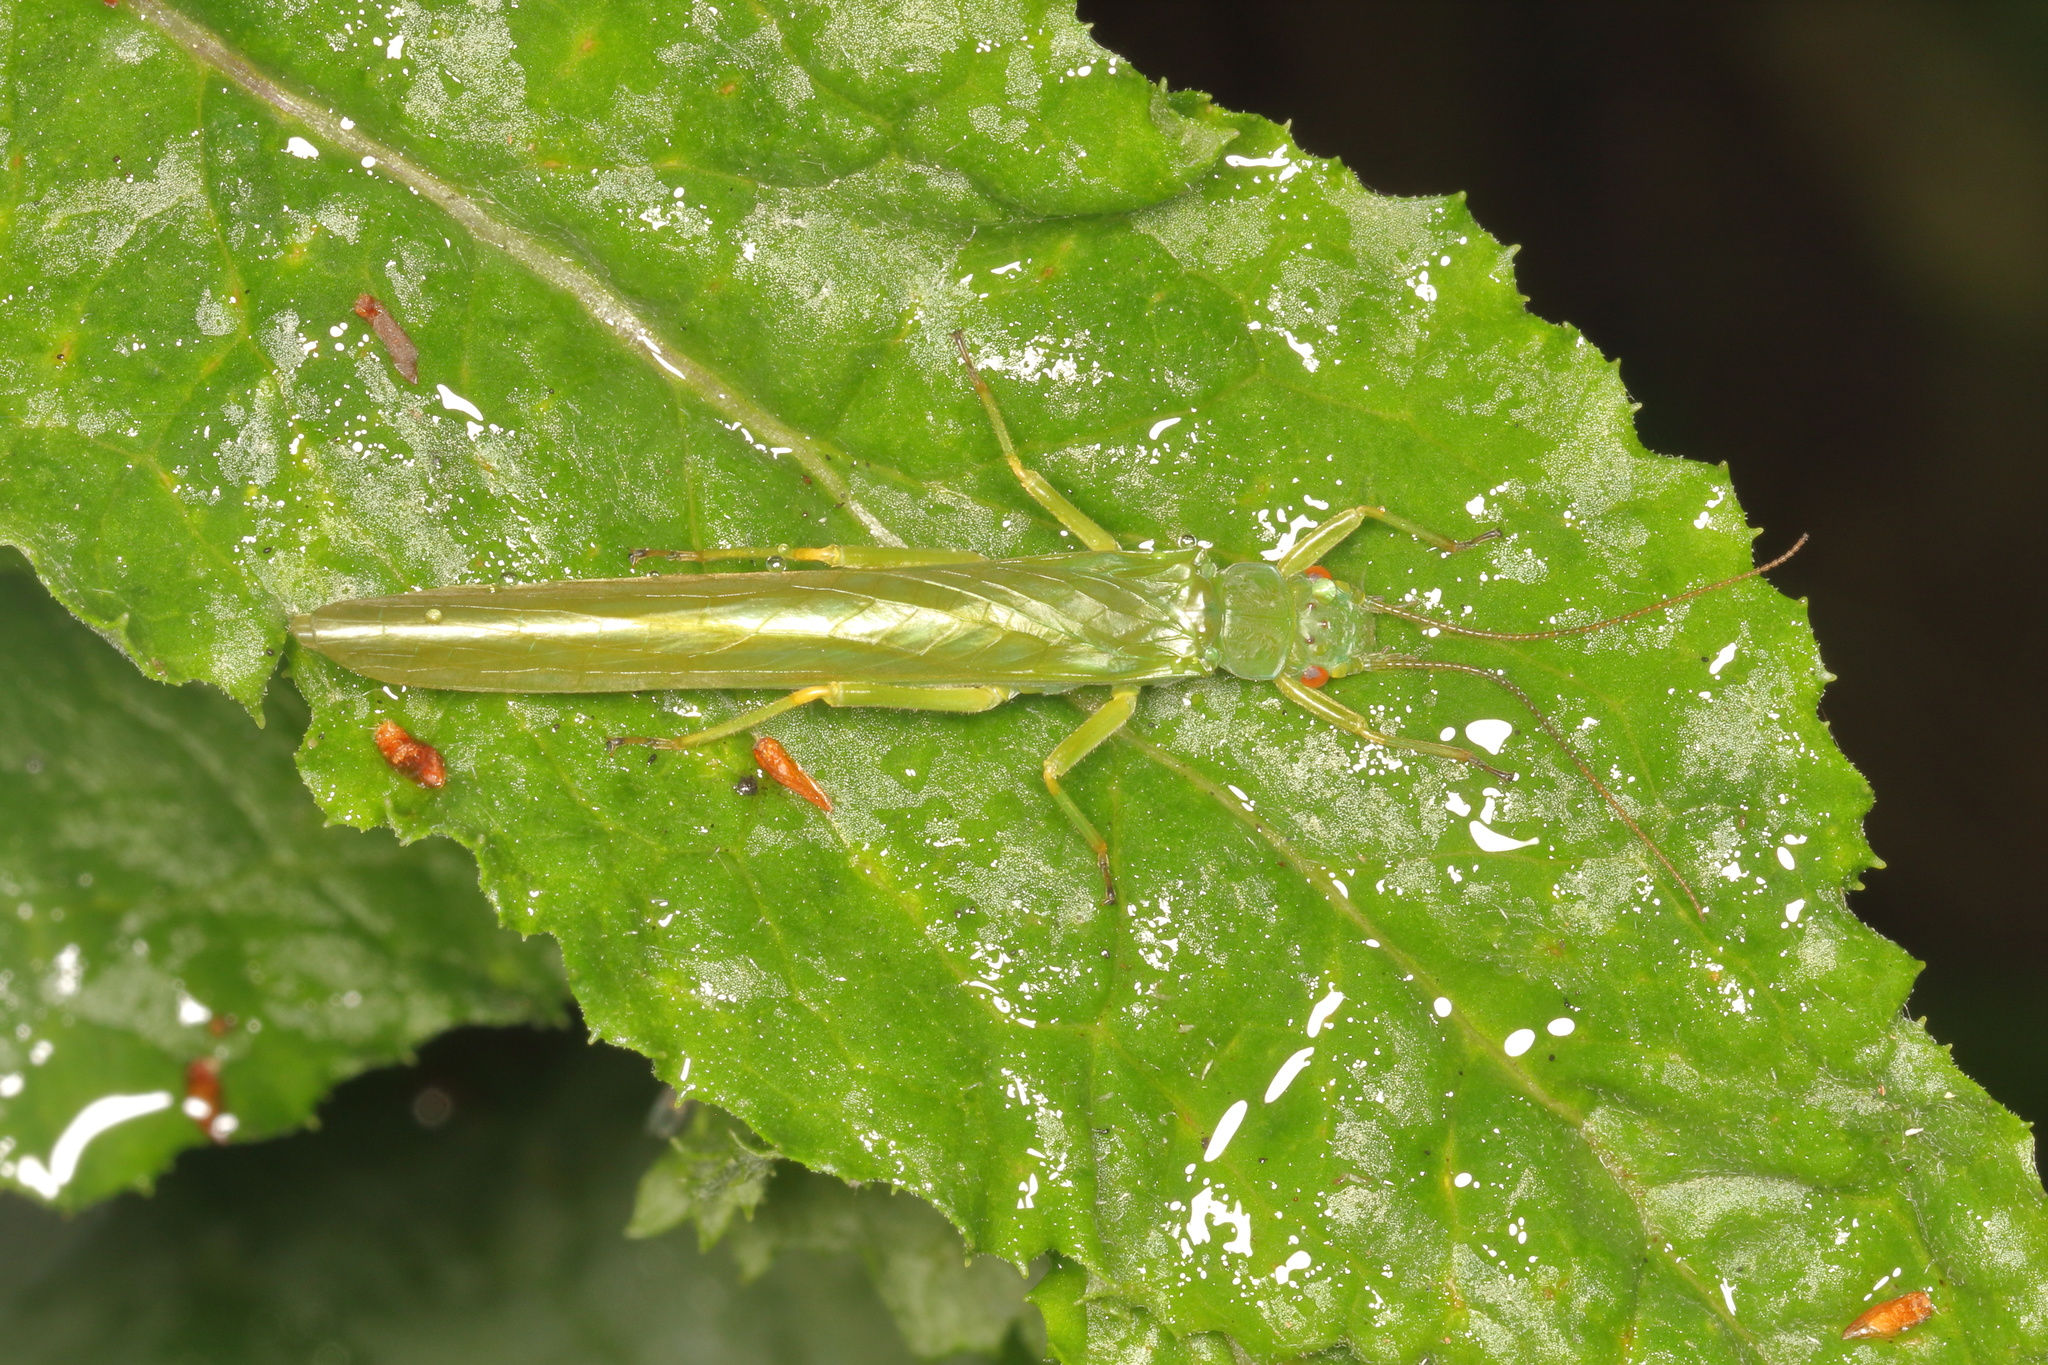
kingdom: Animalia
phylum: Arthropoda
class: Insecta
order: Plecoptera
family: Eustheniidae
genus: Stenoperla
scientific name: Stenoperla
